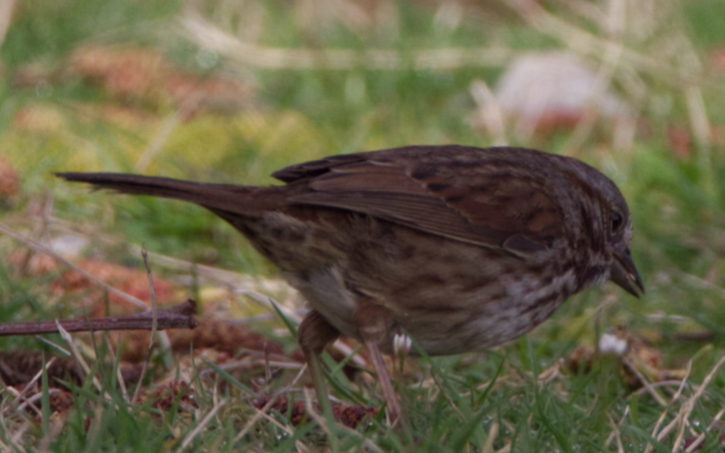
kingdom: Animalia
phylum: Chordata
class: Aves
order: Passeriformes
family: Passerellidae
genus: Melospiza
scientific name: Melospiza melodia
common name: Song sparrow
